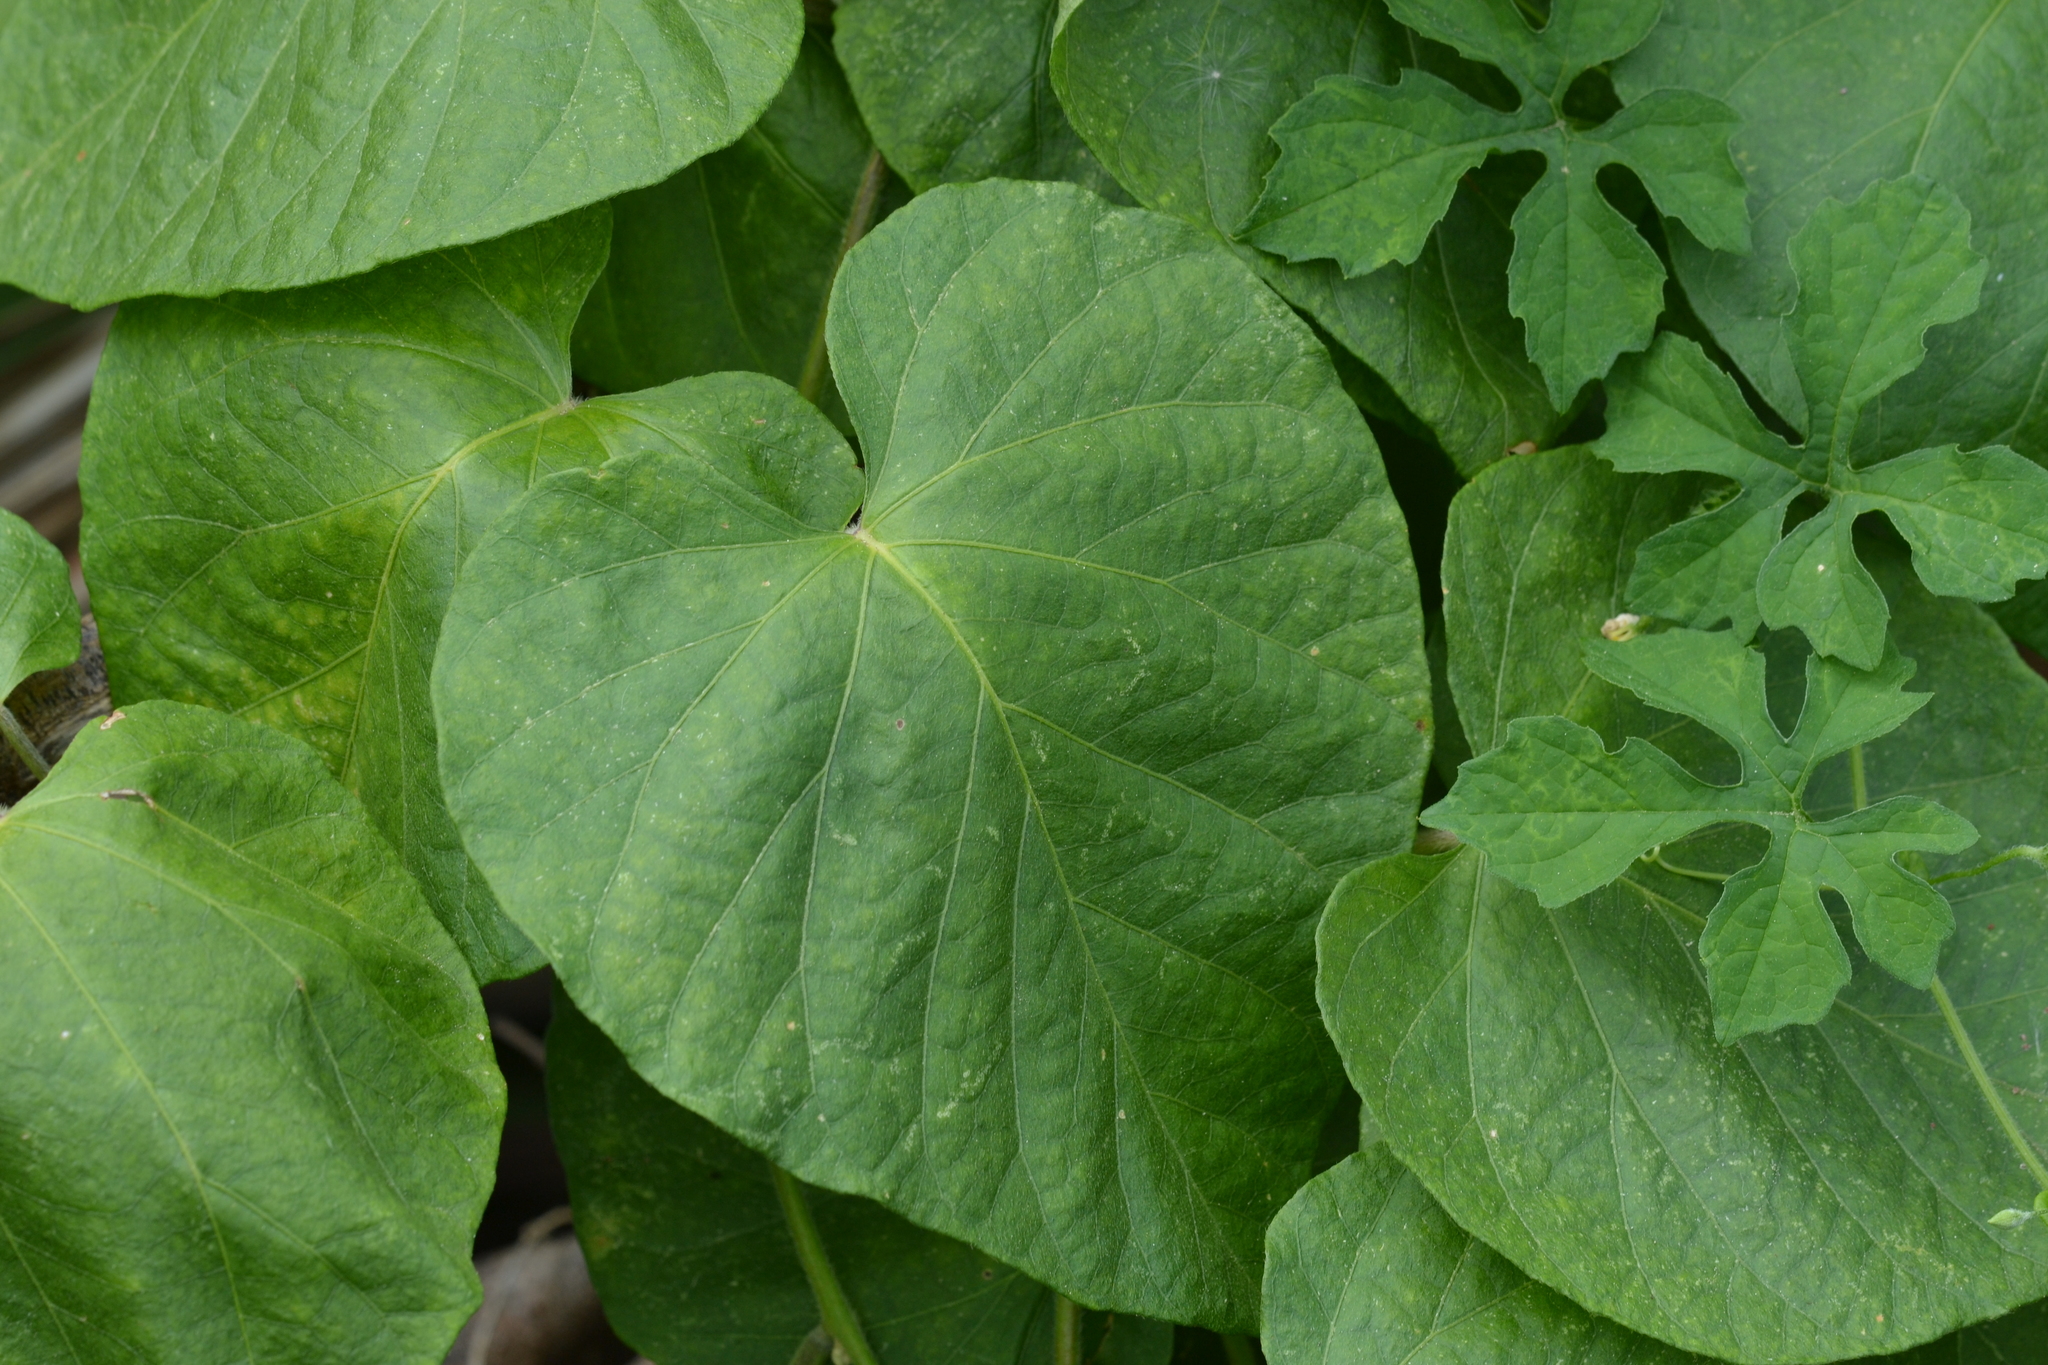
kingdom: Plantae
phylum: Tracheophyta
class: Magnoliopsida
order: Solanales
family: Convolvulaceae
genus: Ipomoea
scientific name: Ipomoea indica
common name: Blue dawnflower
